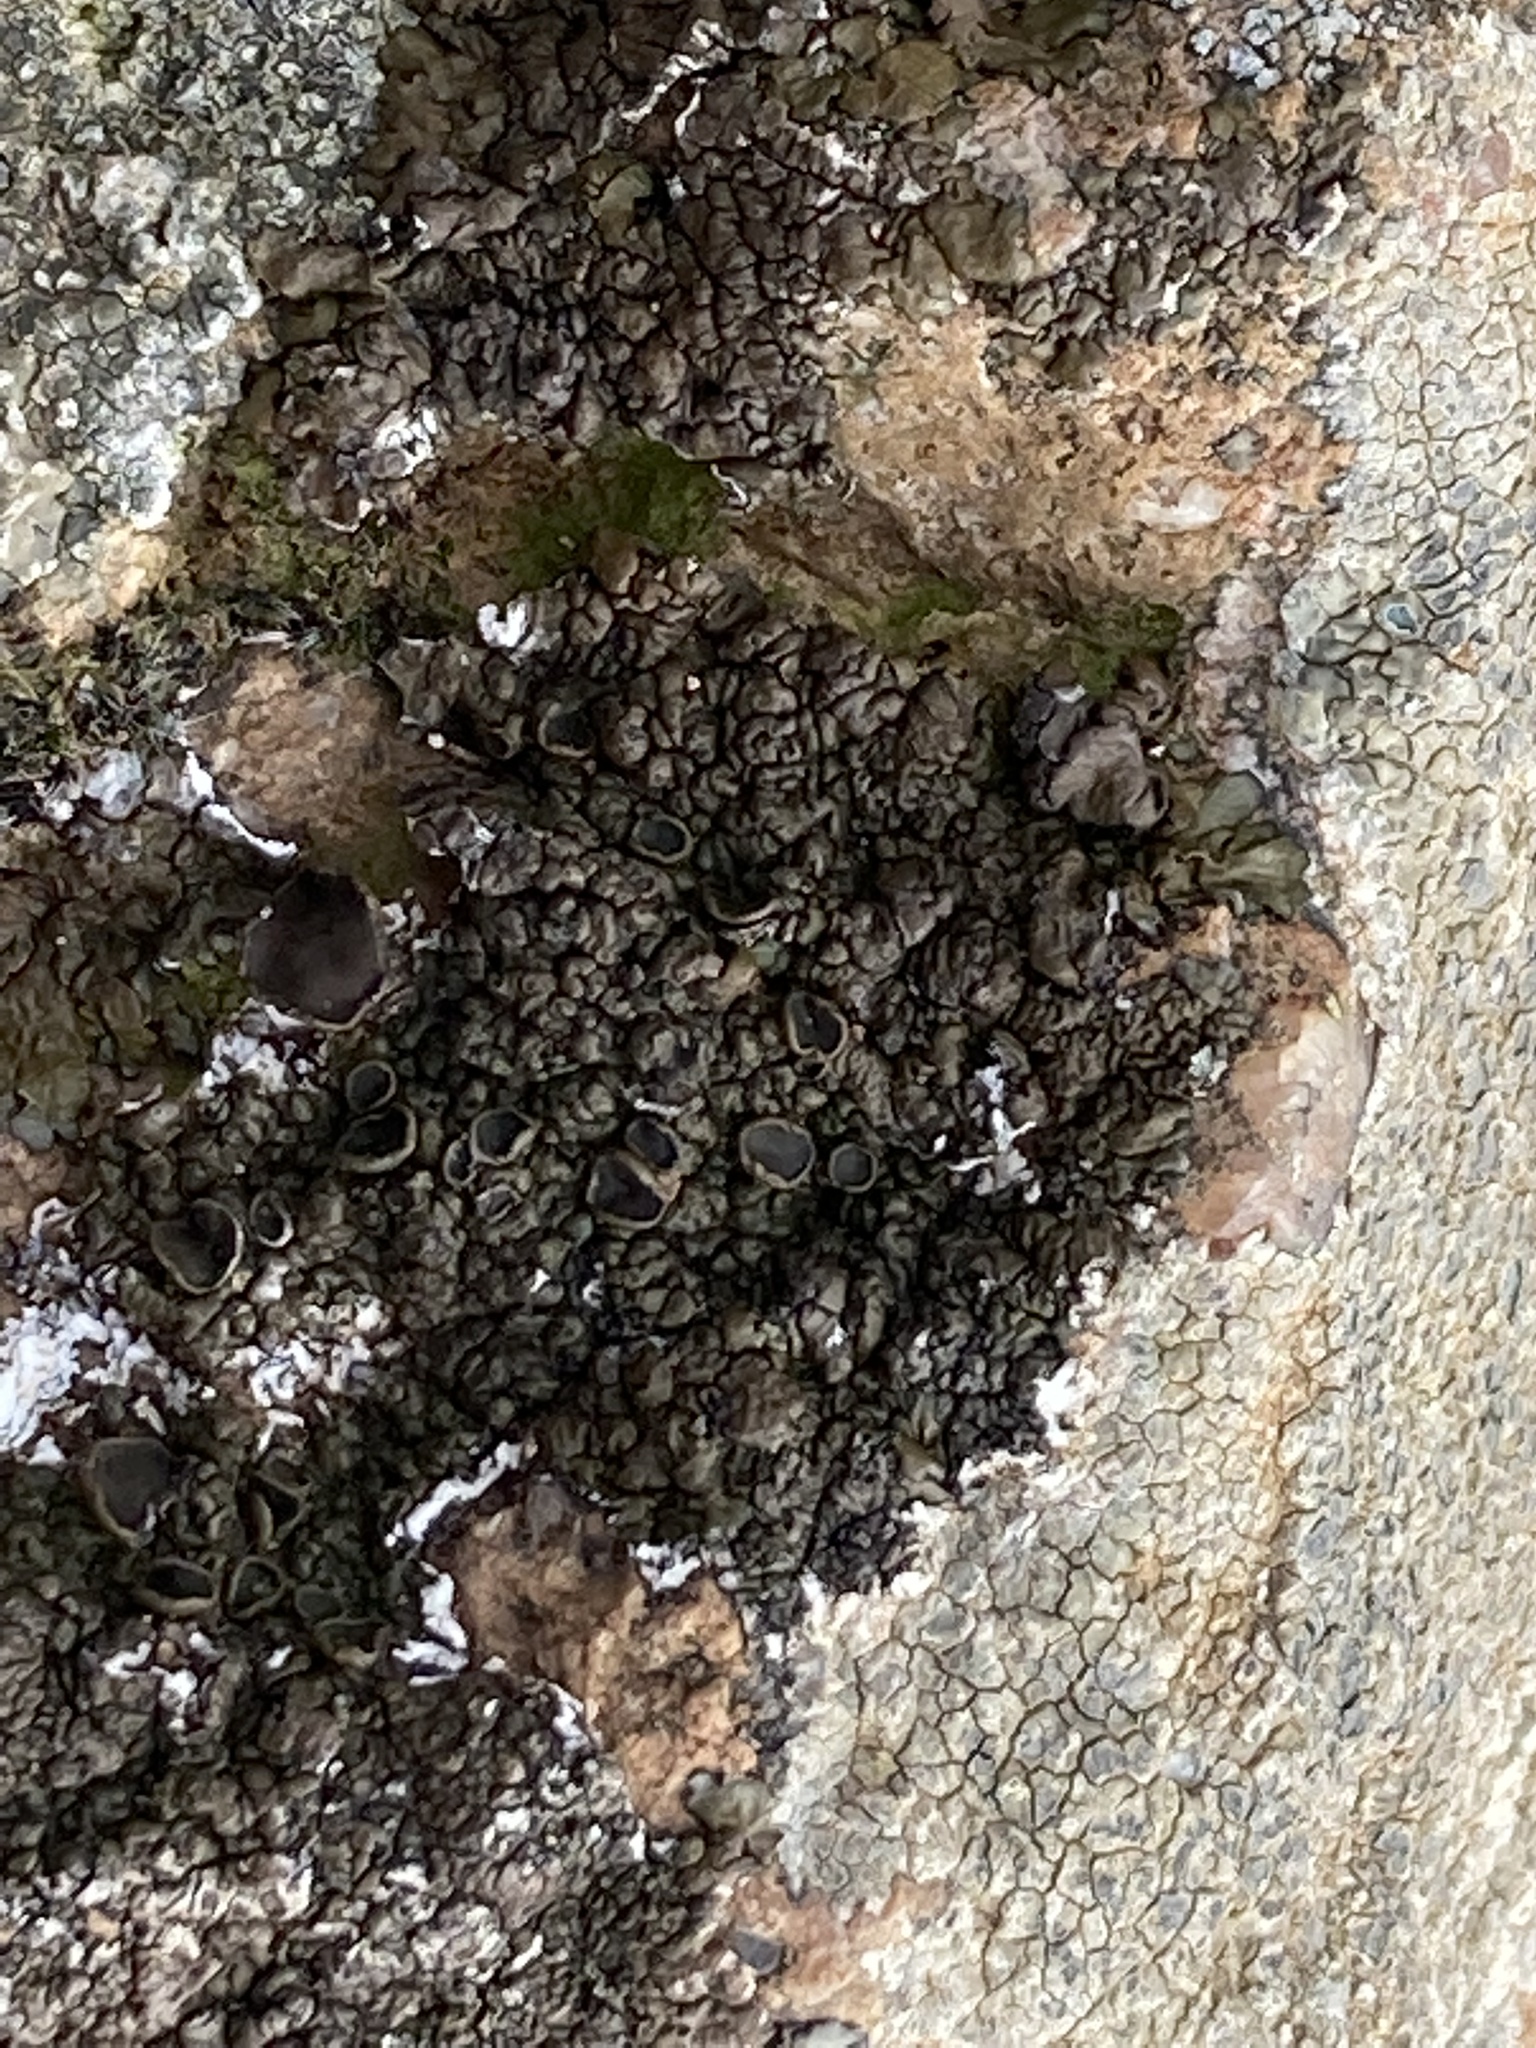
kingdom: Fungi
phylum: Ascomycota
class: Lecanoromycetes
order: Lecanorales
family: Parmeliaceae
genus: Xanthoparmelia
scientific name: Xanthoparmelia pulla
